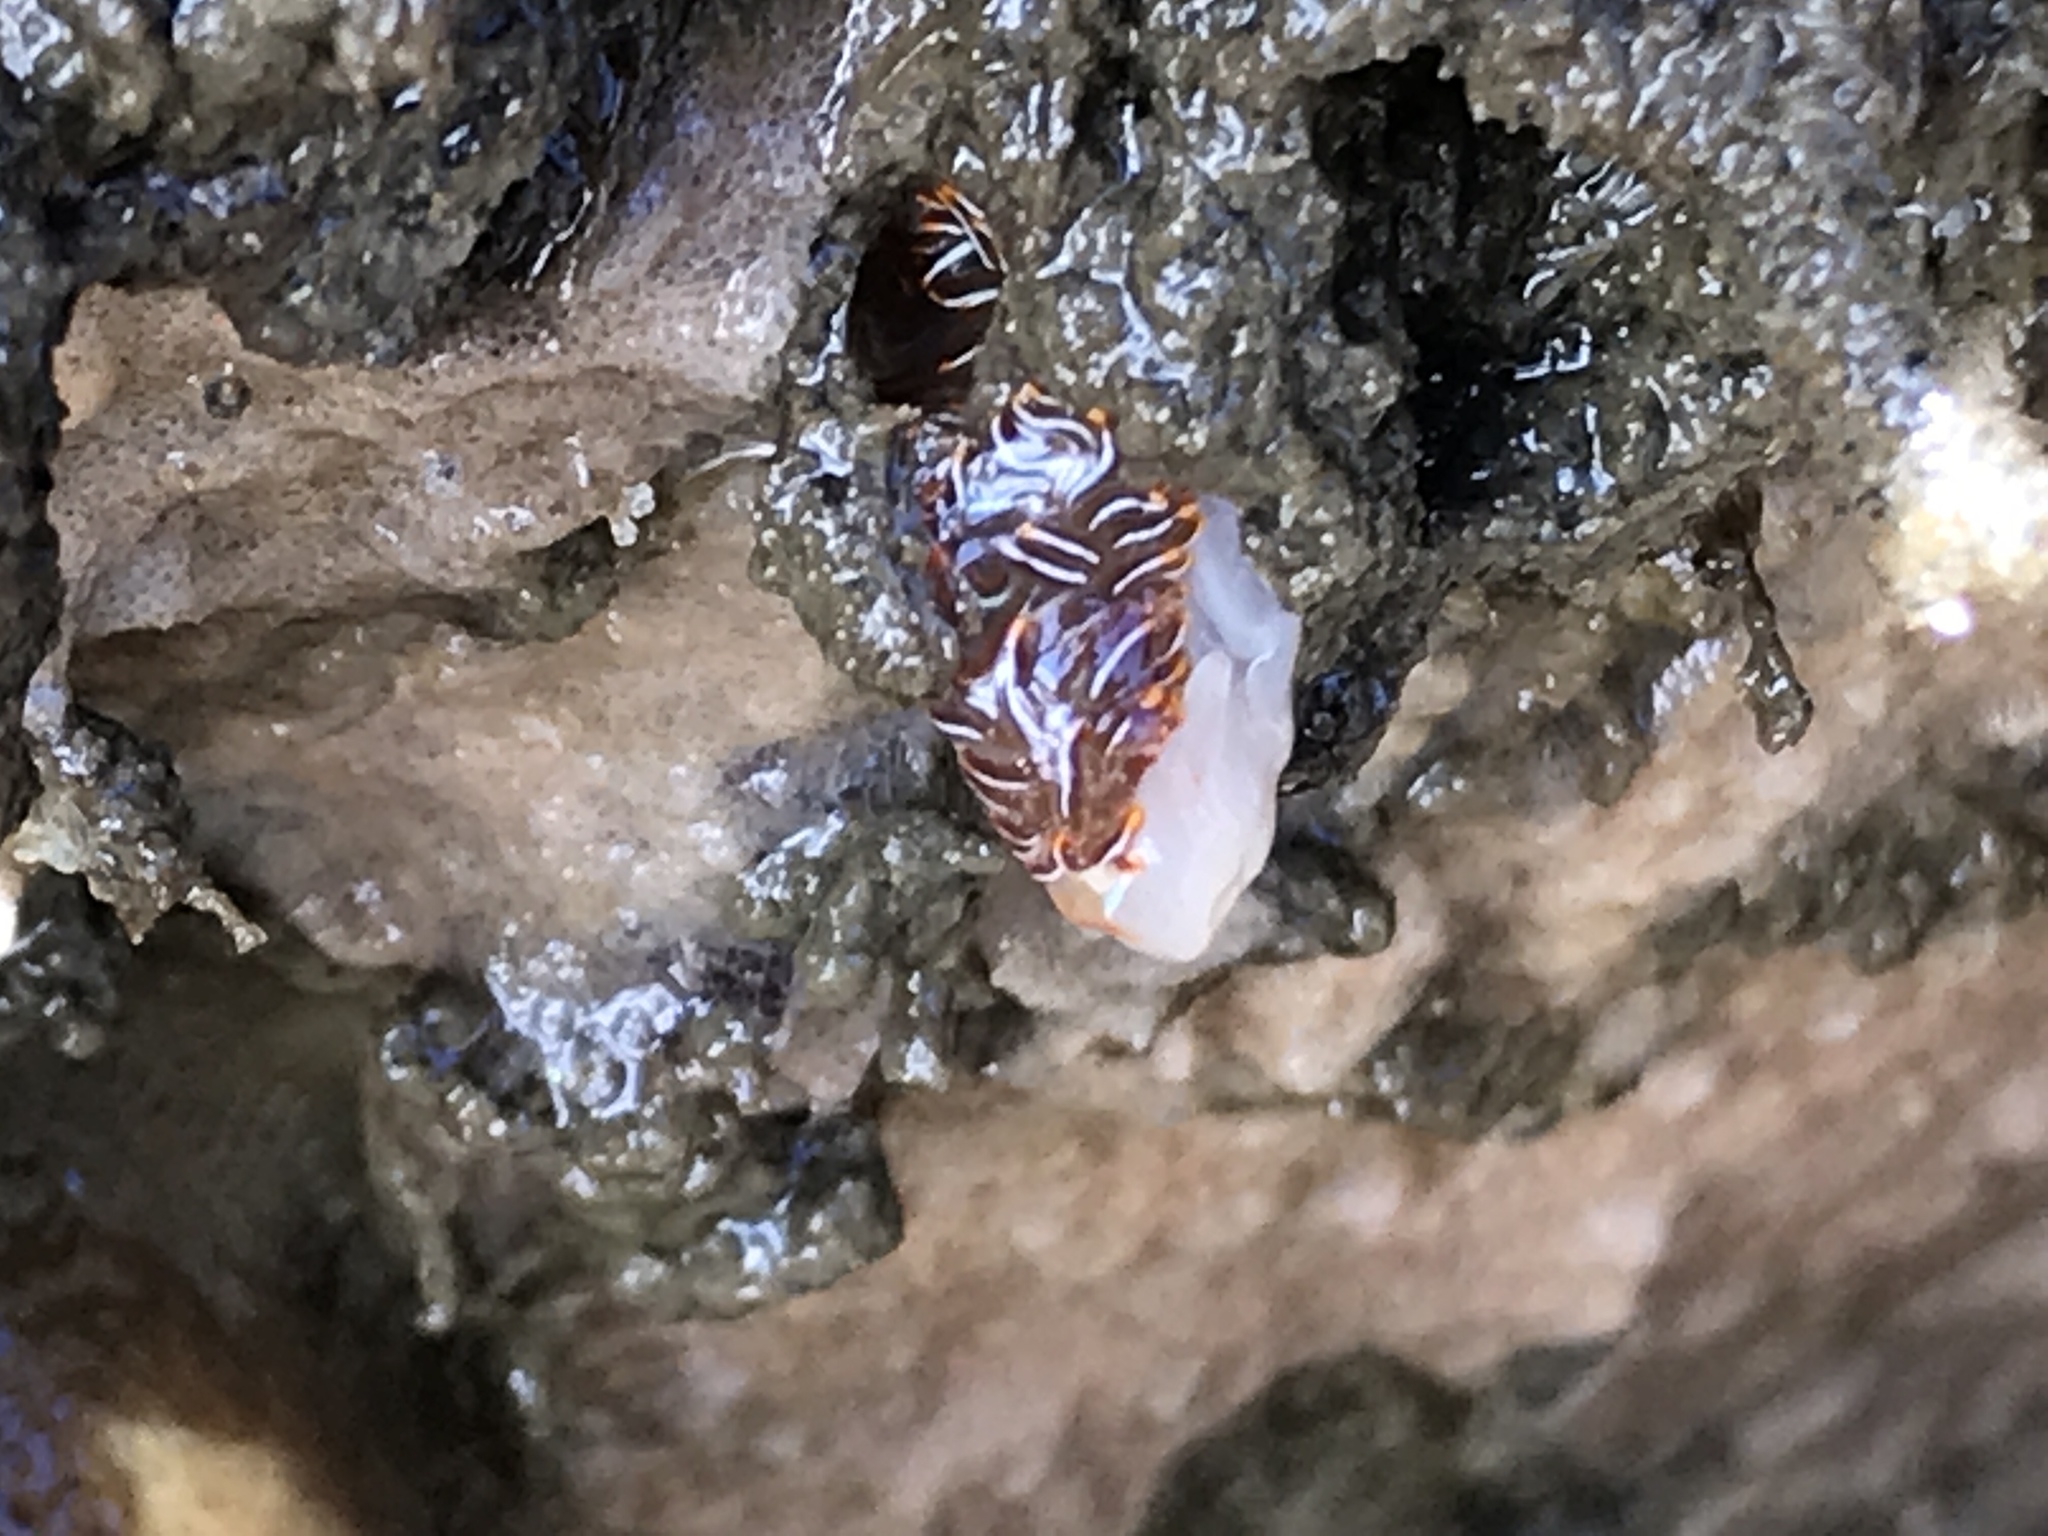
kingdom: Animalia
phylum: Mollusca
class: Gastropoda
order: Nudibranchia
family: Myrrhinidae
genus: Hermissenda
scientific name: Hermissenda crassicornis
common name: Hermissenda
